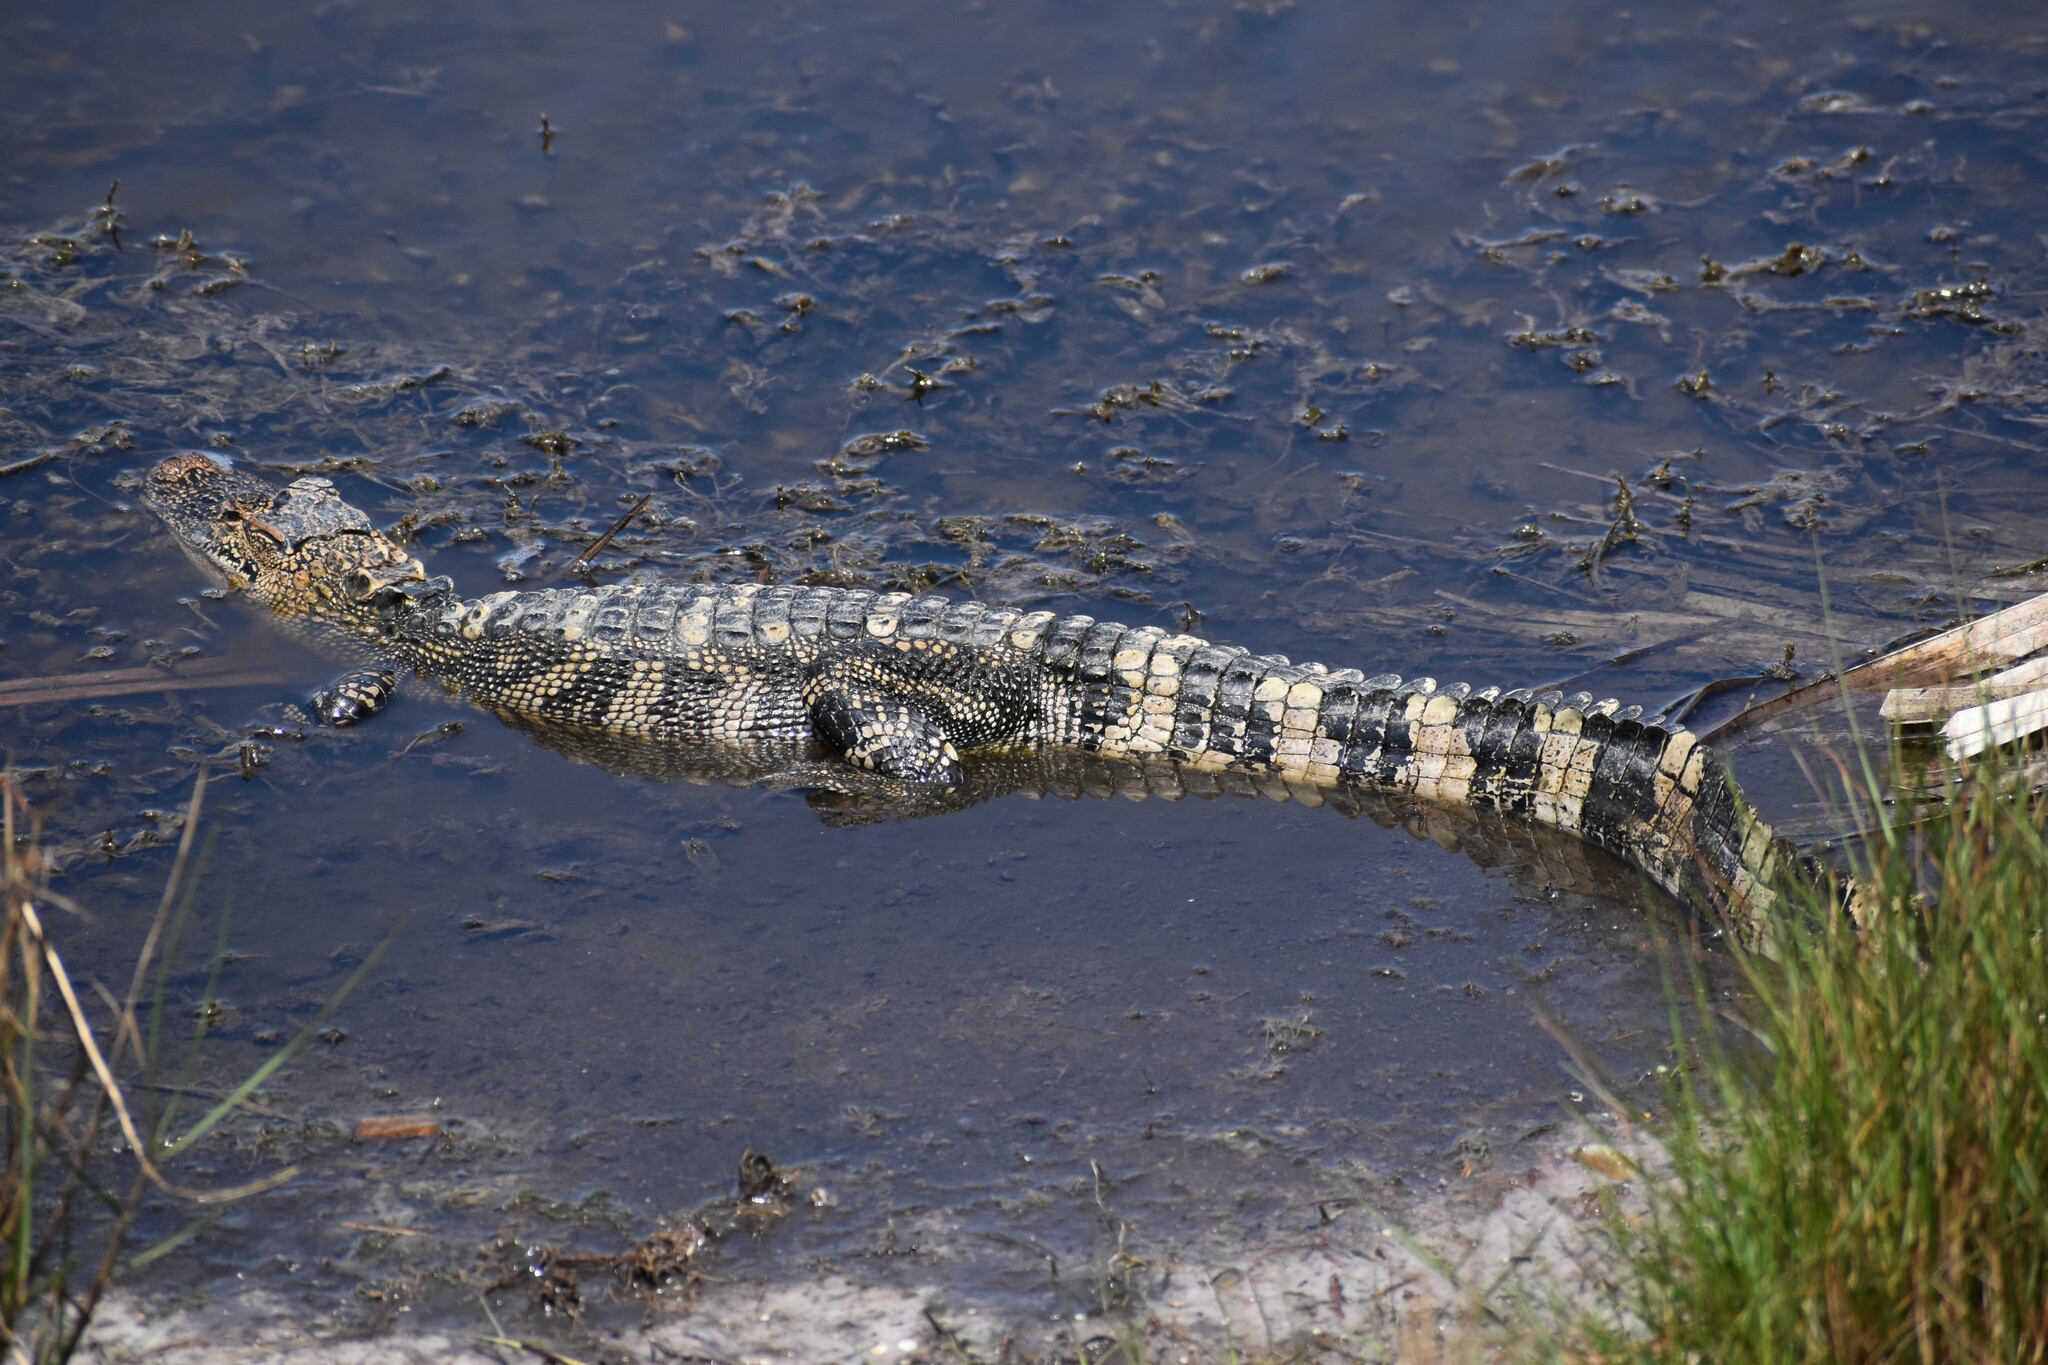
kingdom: Animalia
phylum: Chordata
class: Crocodylia
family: Alligatoridae
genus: Alligator
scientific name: Alligator mississippiensis
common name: American alligator
